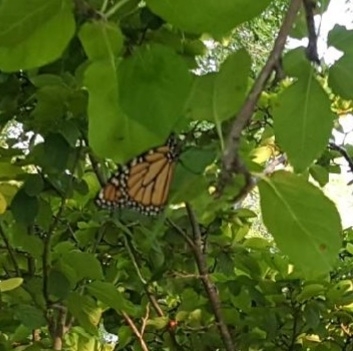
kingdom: Animalia
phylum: Arthropoda
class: Insecta
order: Lepidoptera
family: Nymphalidae
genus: Danaus
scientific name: Danaus plexippus
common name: Monarch
